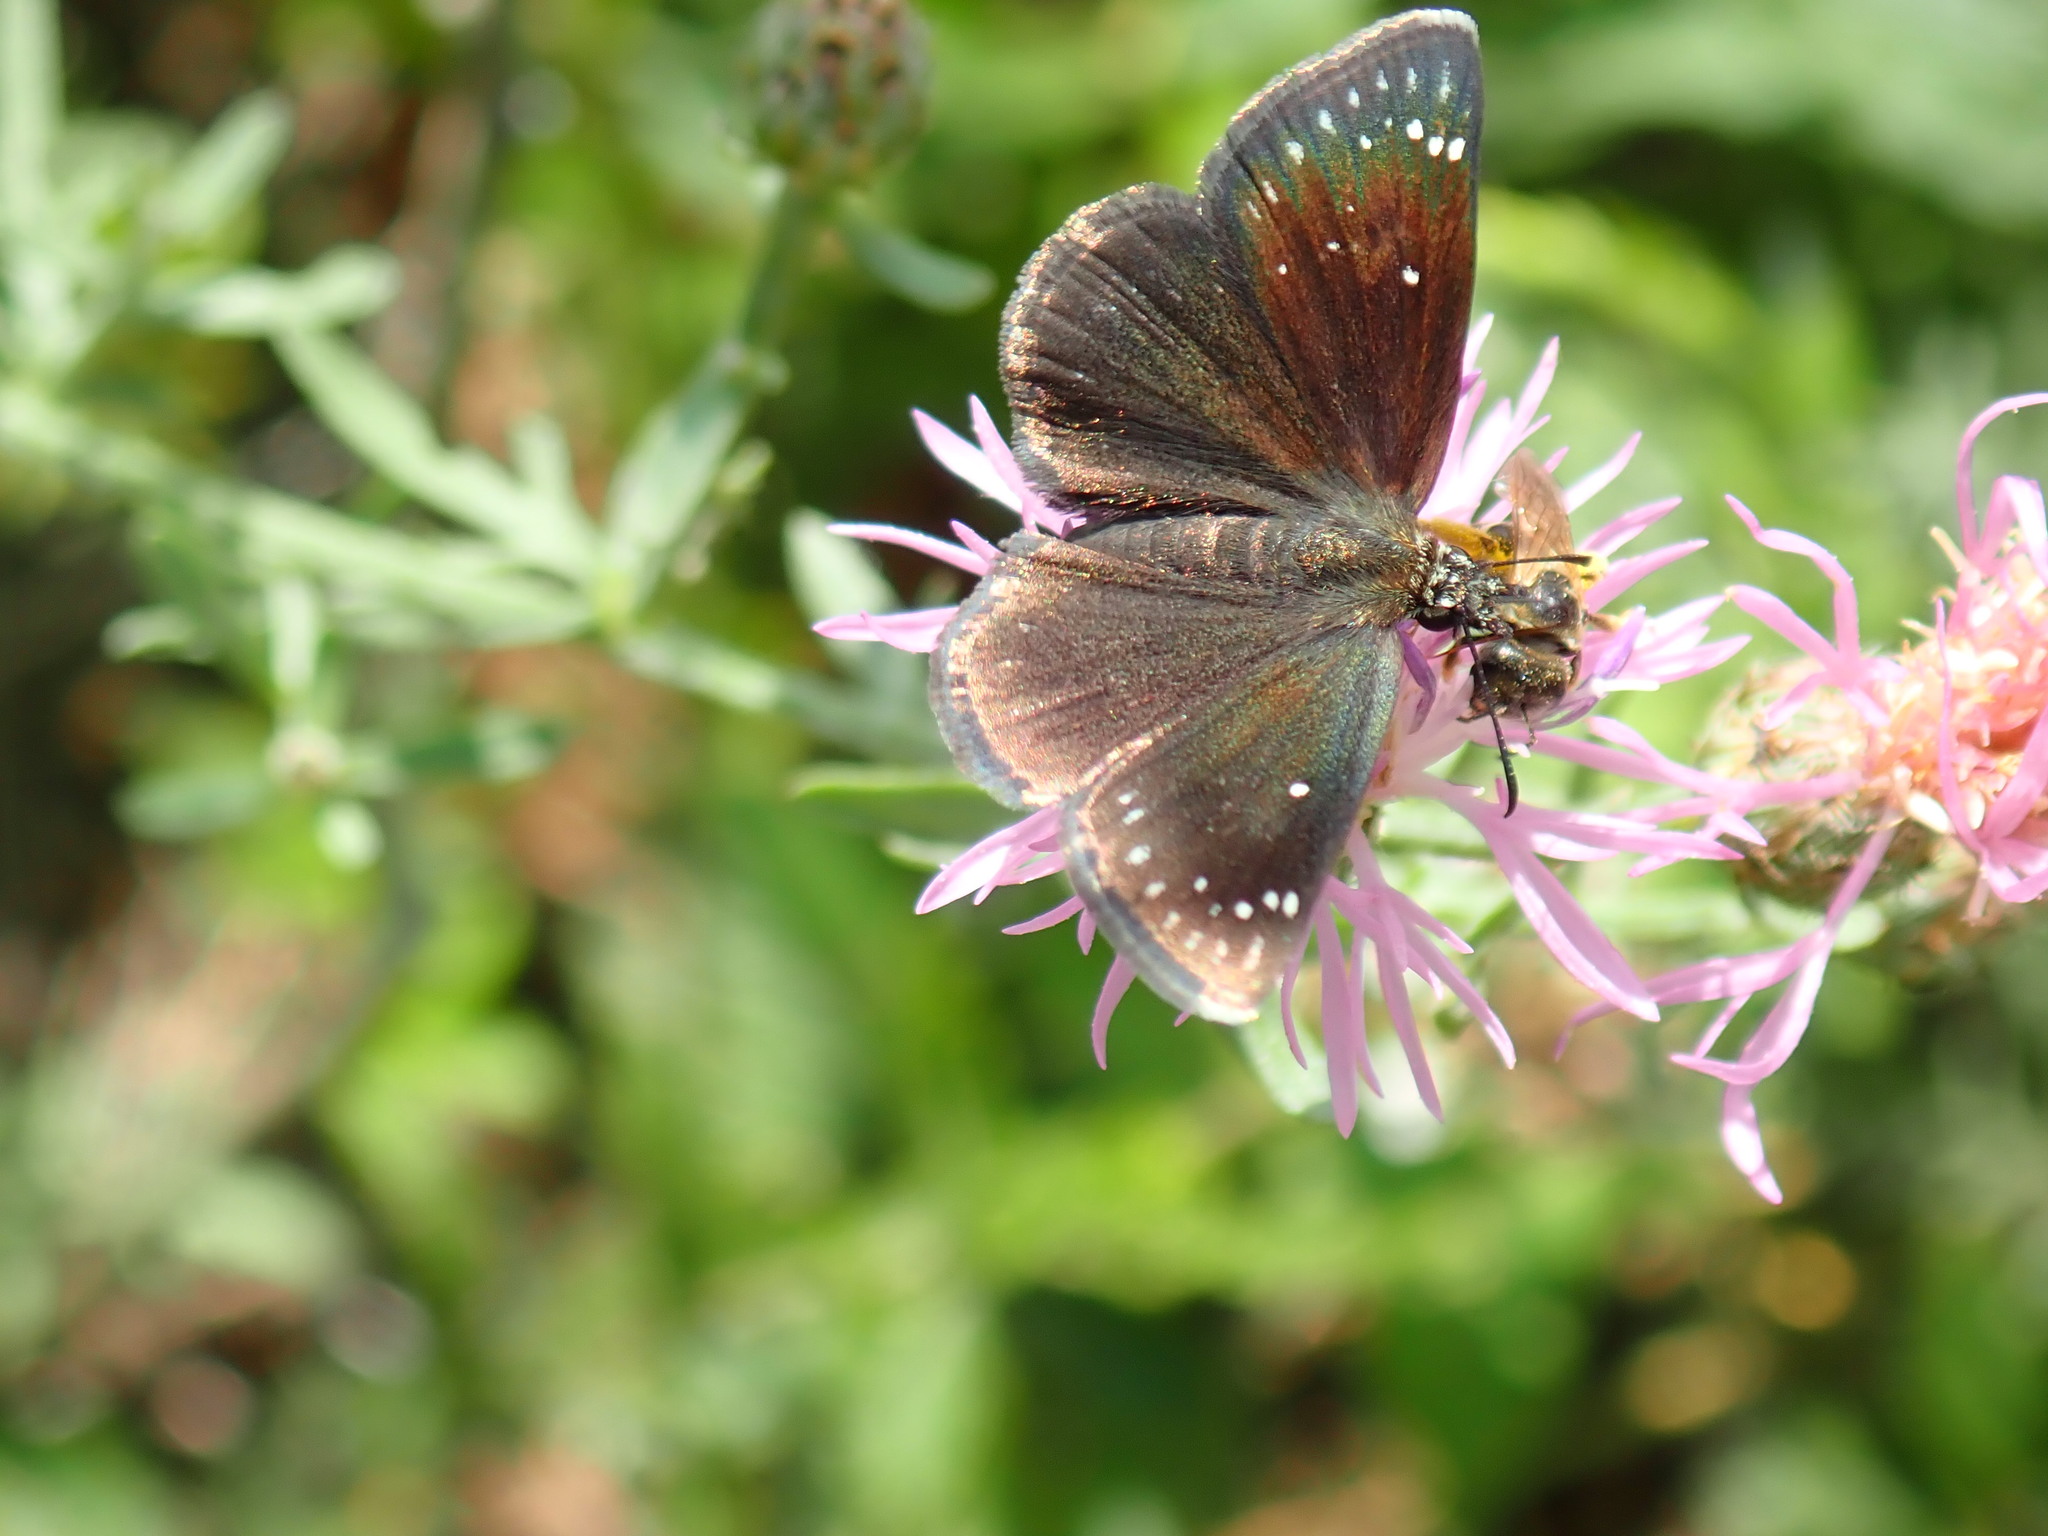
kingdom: Animalia
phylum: Arthropoda
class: Insecta
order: Lepidoptera
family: Hesperiidae
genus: Pholisora
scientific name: Pholisora catullus
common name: Common sootywing
